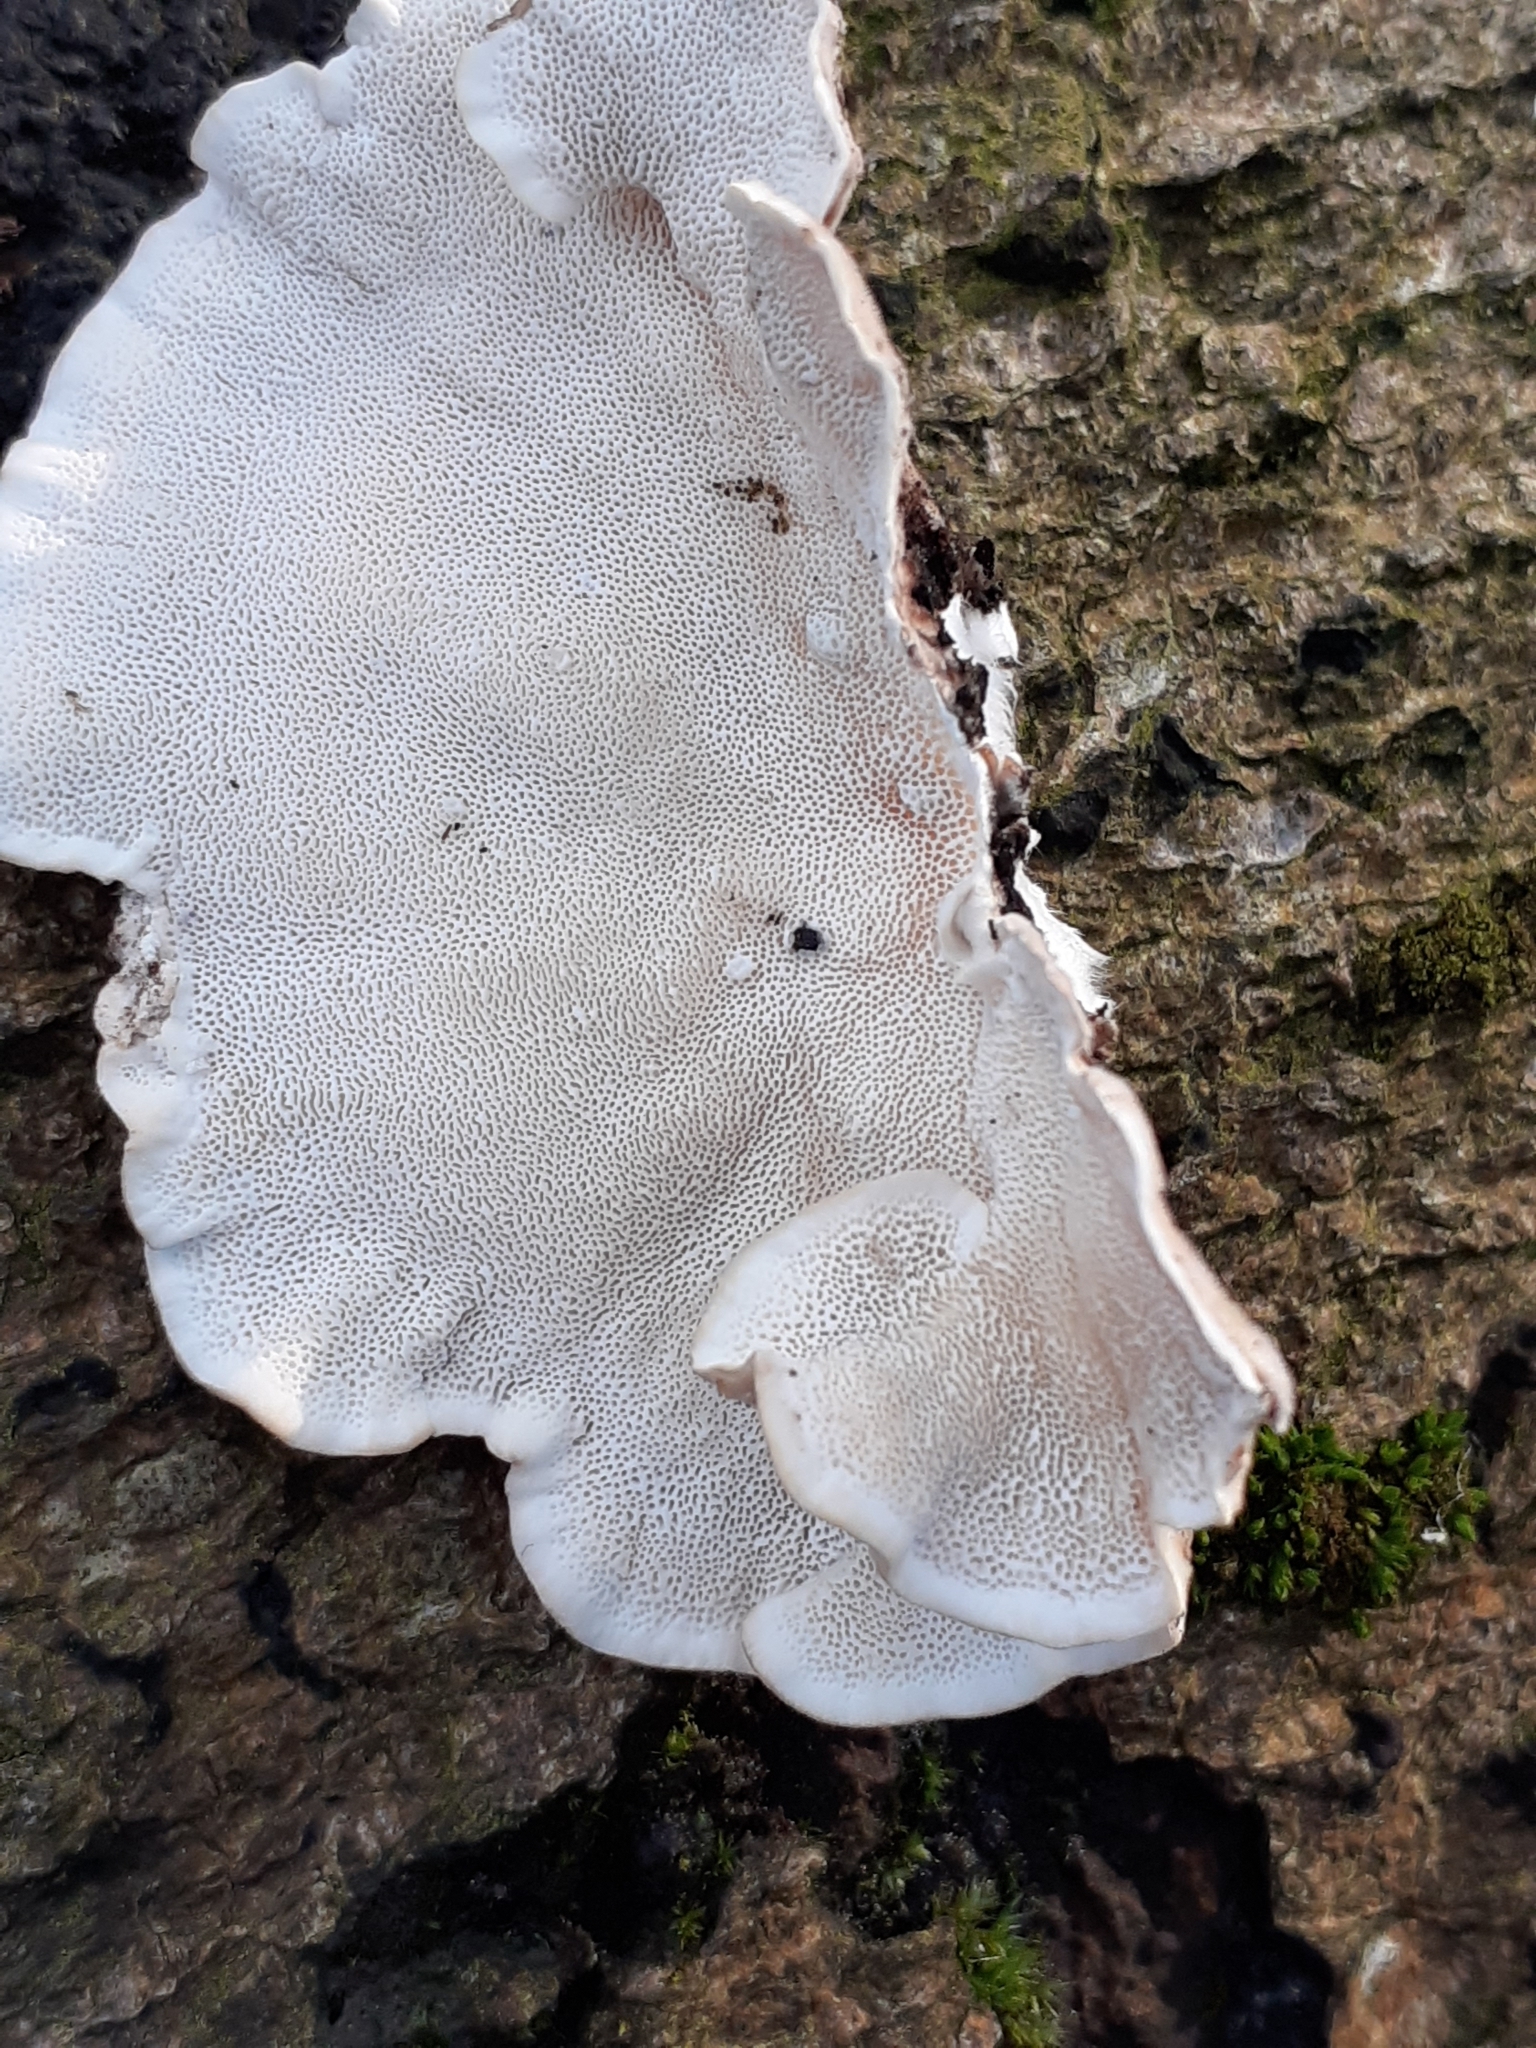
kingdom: Fungi
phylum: Basidiomycota
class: Agaricomycetes
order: Polyporales
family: Polyporaceae
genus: Trametes
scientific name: Trametes versicolor
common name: Turkeytail
